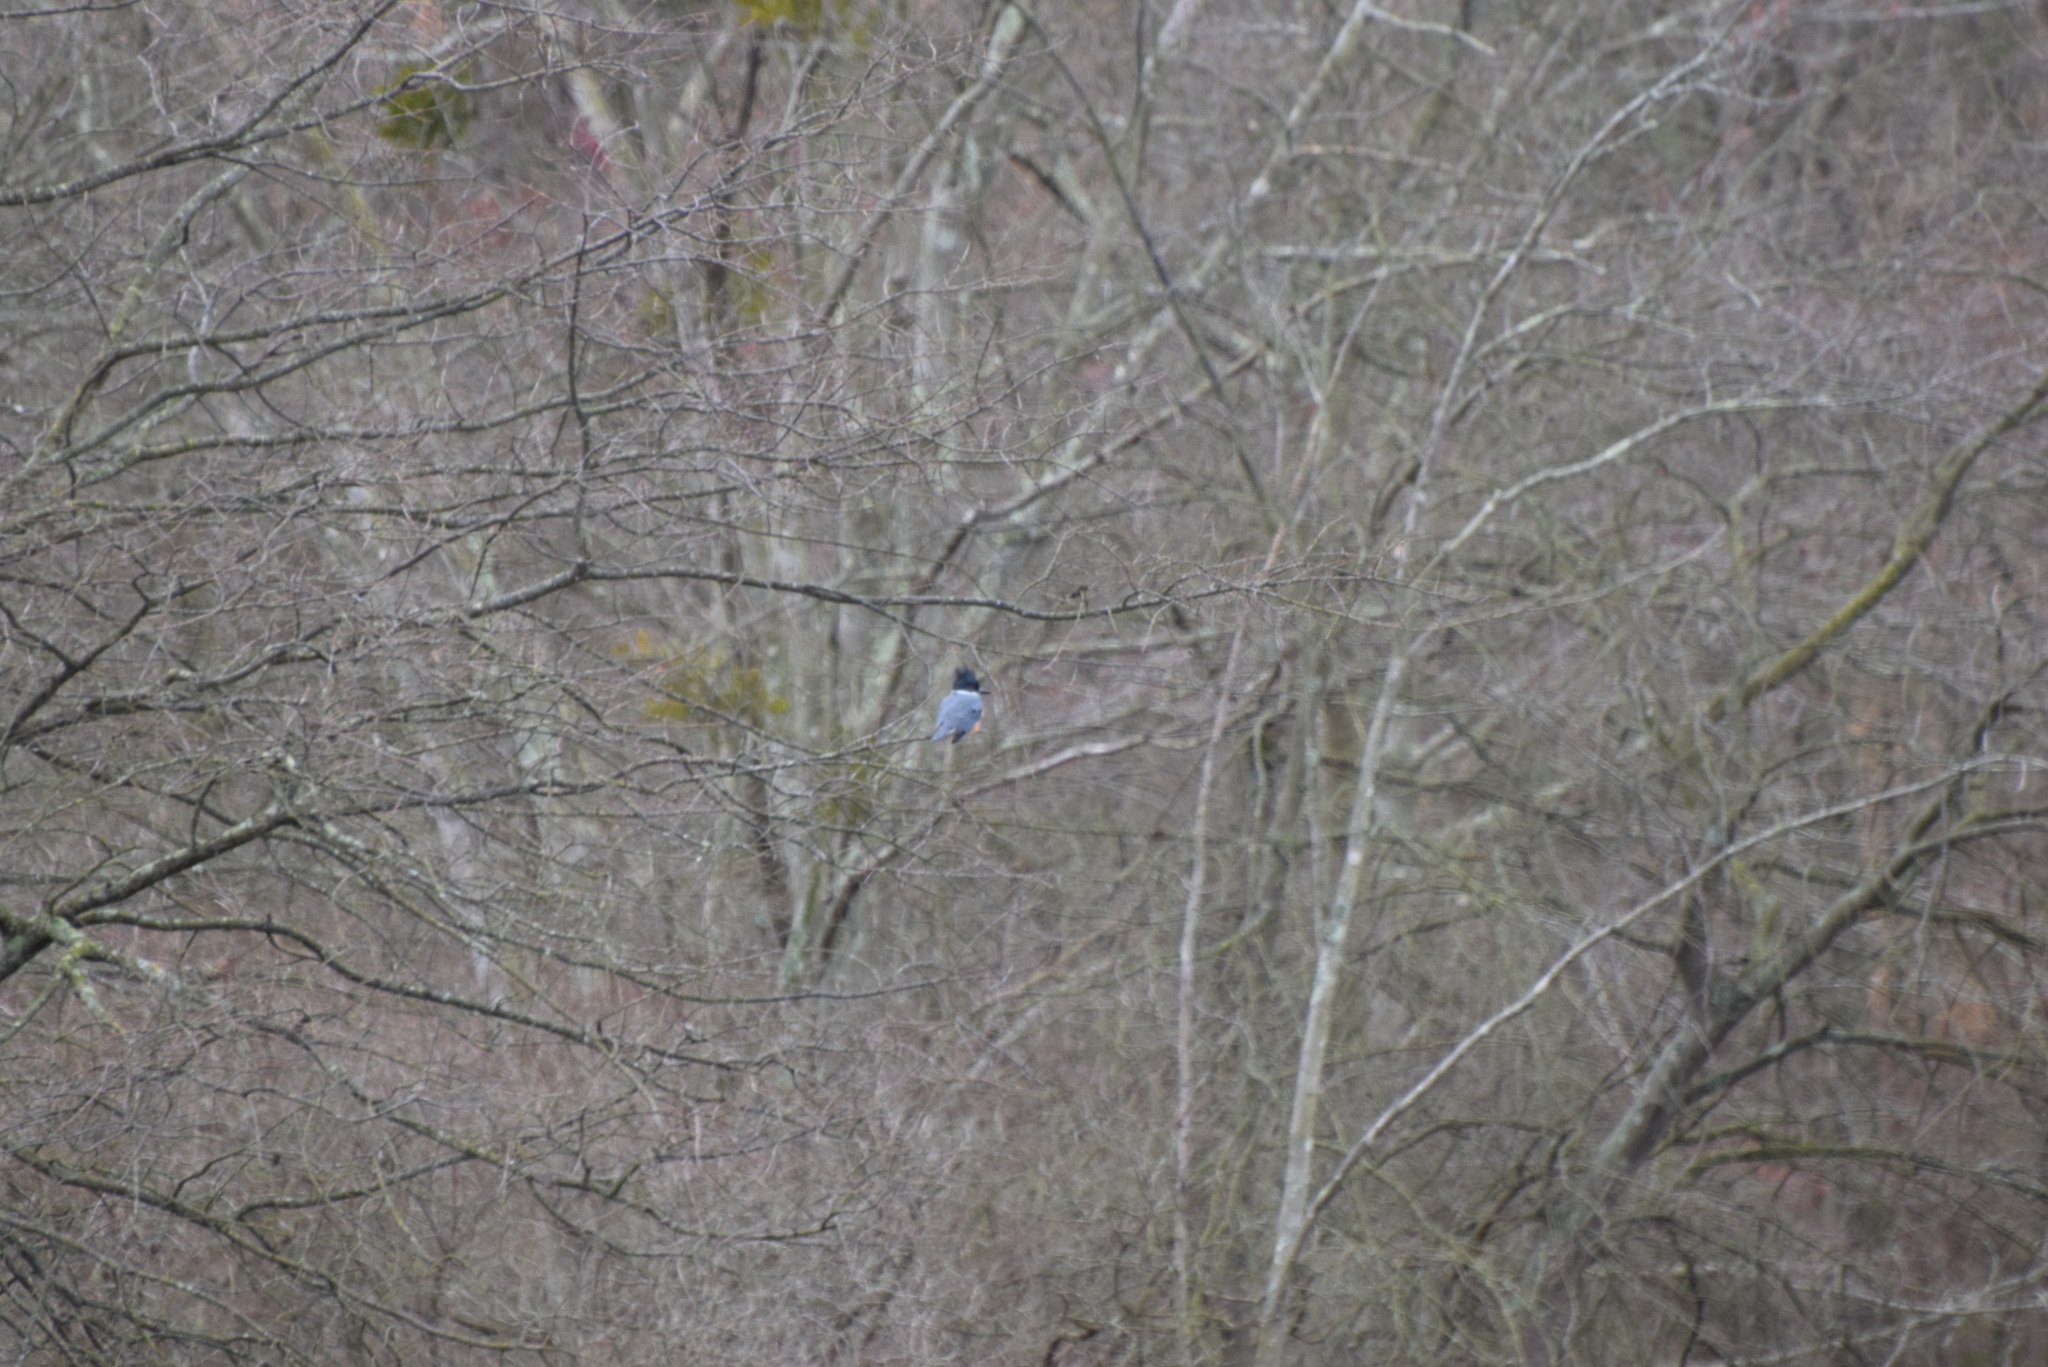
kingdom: Animalia
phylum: Chordata
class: Aves
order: Coraciiformes
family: Alcedinidae
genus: Megaceryle
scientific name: Megaceryle alcyon
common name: Belted kingfisher
